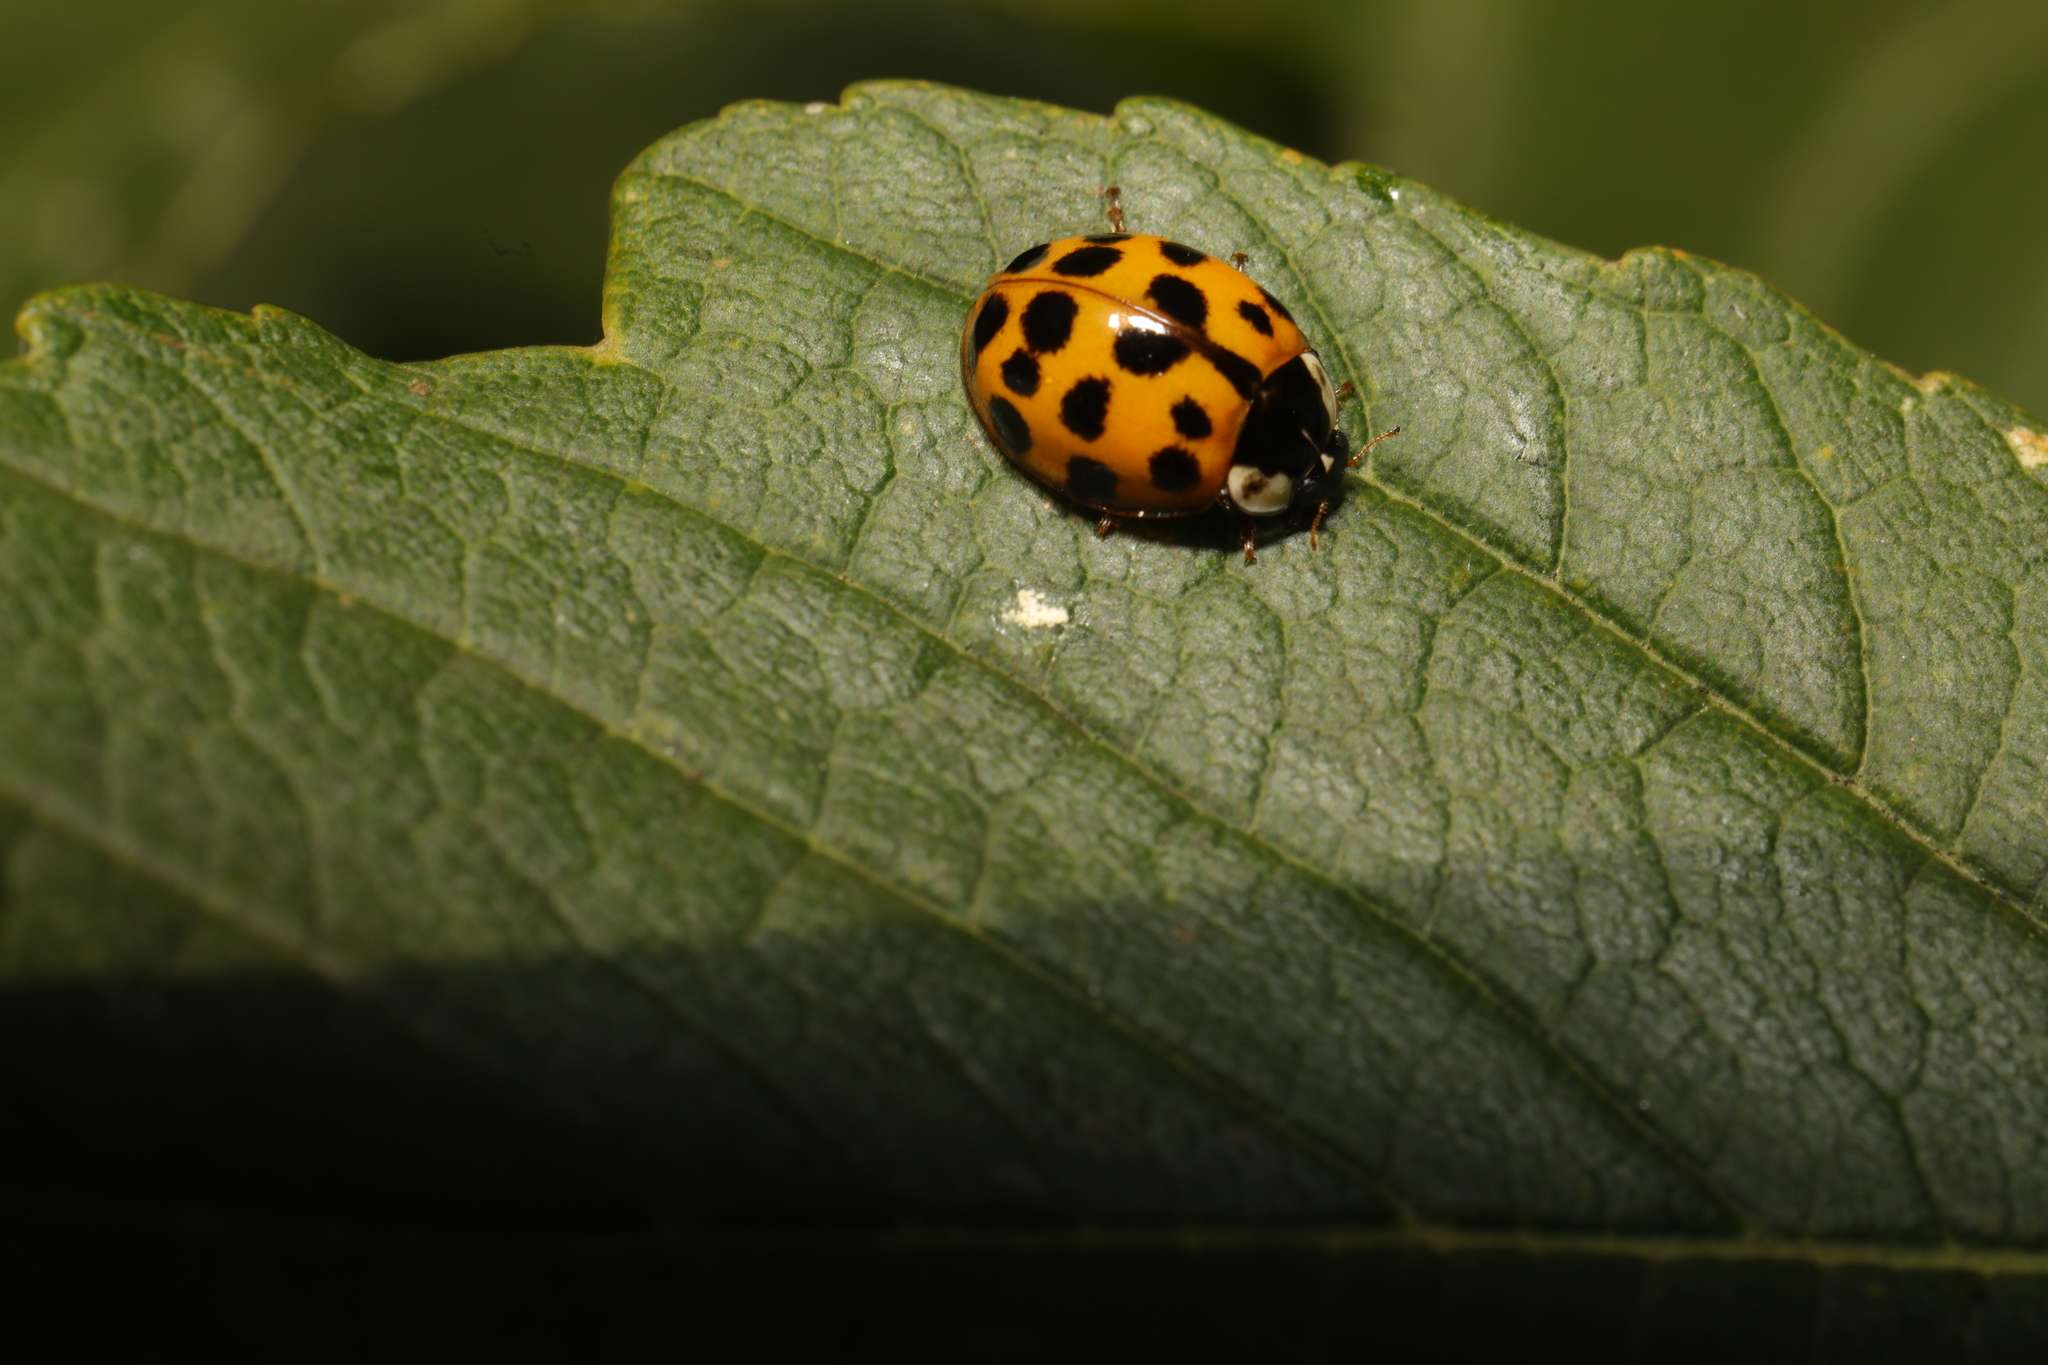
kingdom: Animalia
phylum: Arthropoda
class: Insecta
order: Coleoptera
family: Coccinellidae
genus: Harmonia
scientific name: Harmonia axyridis
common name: Harlequin ladybird
